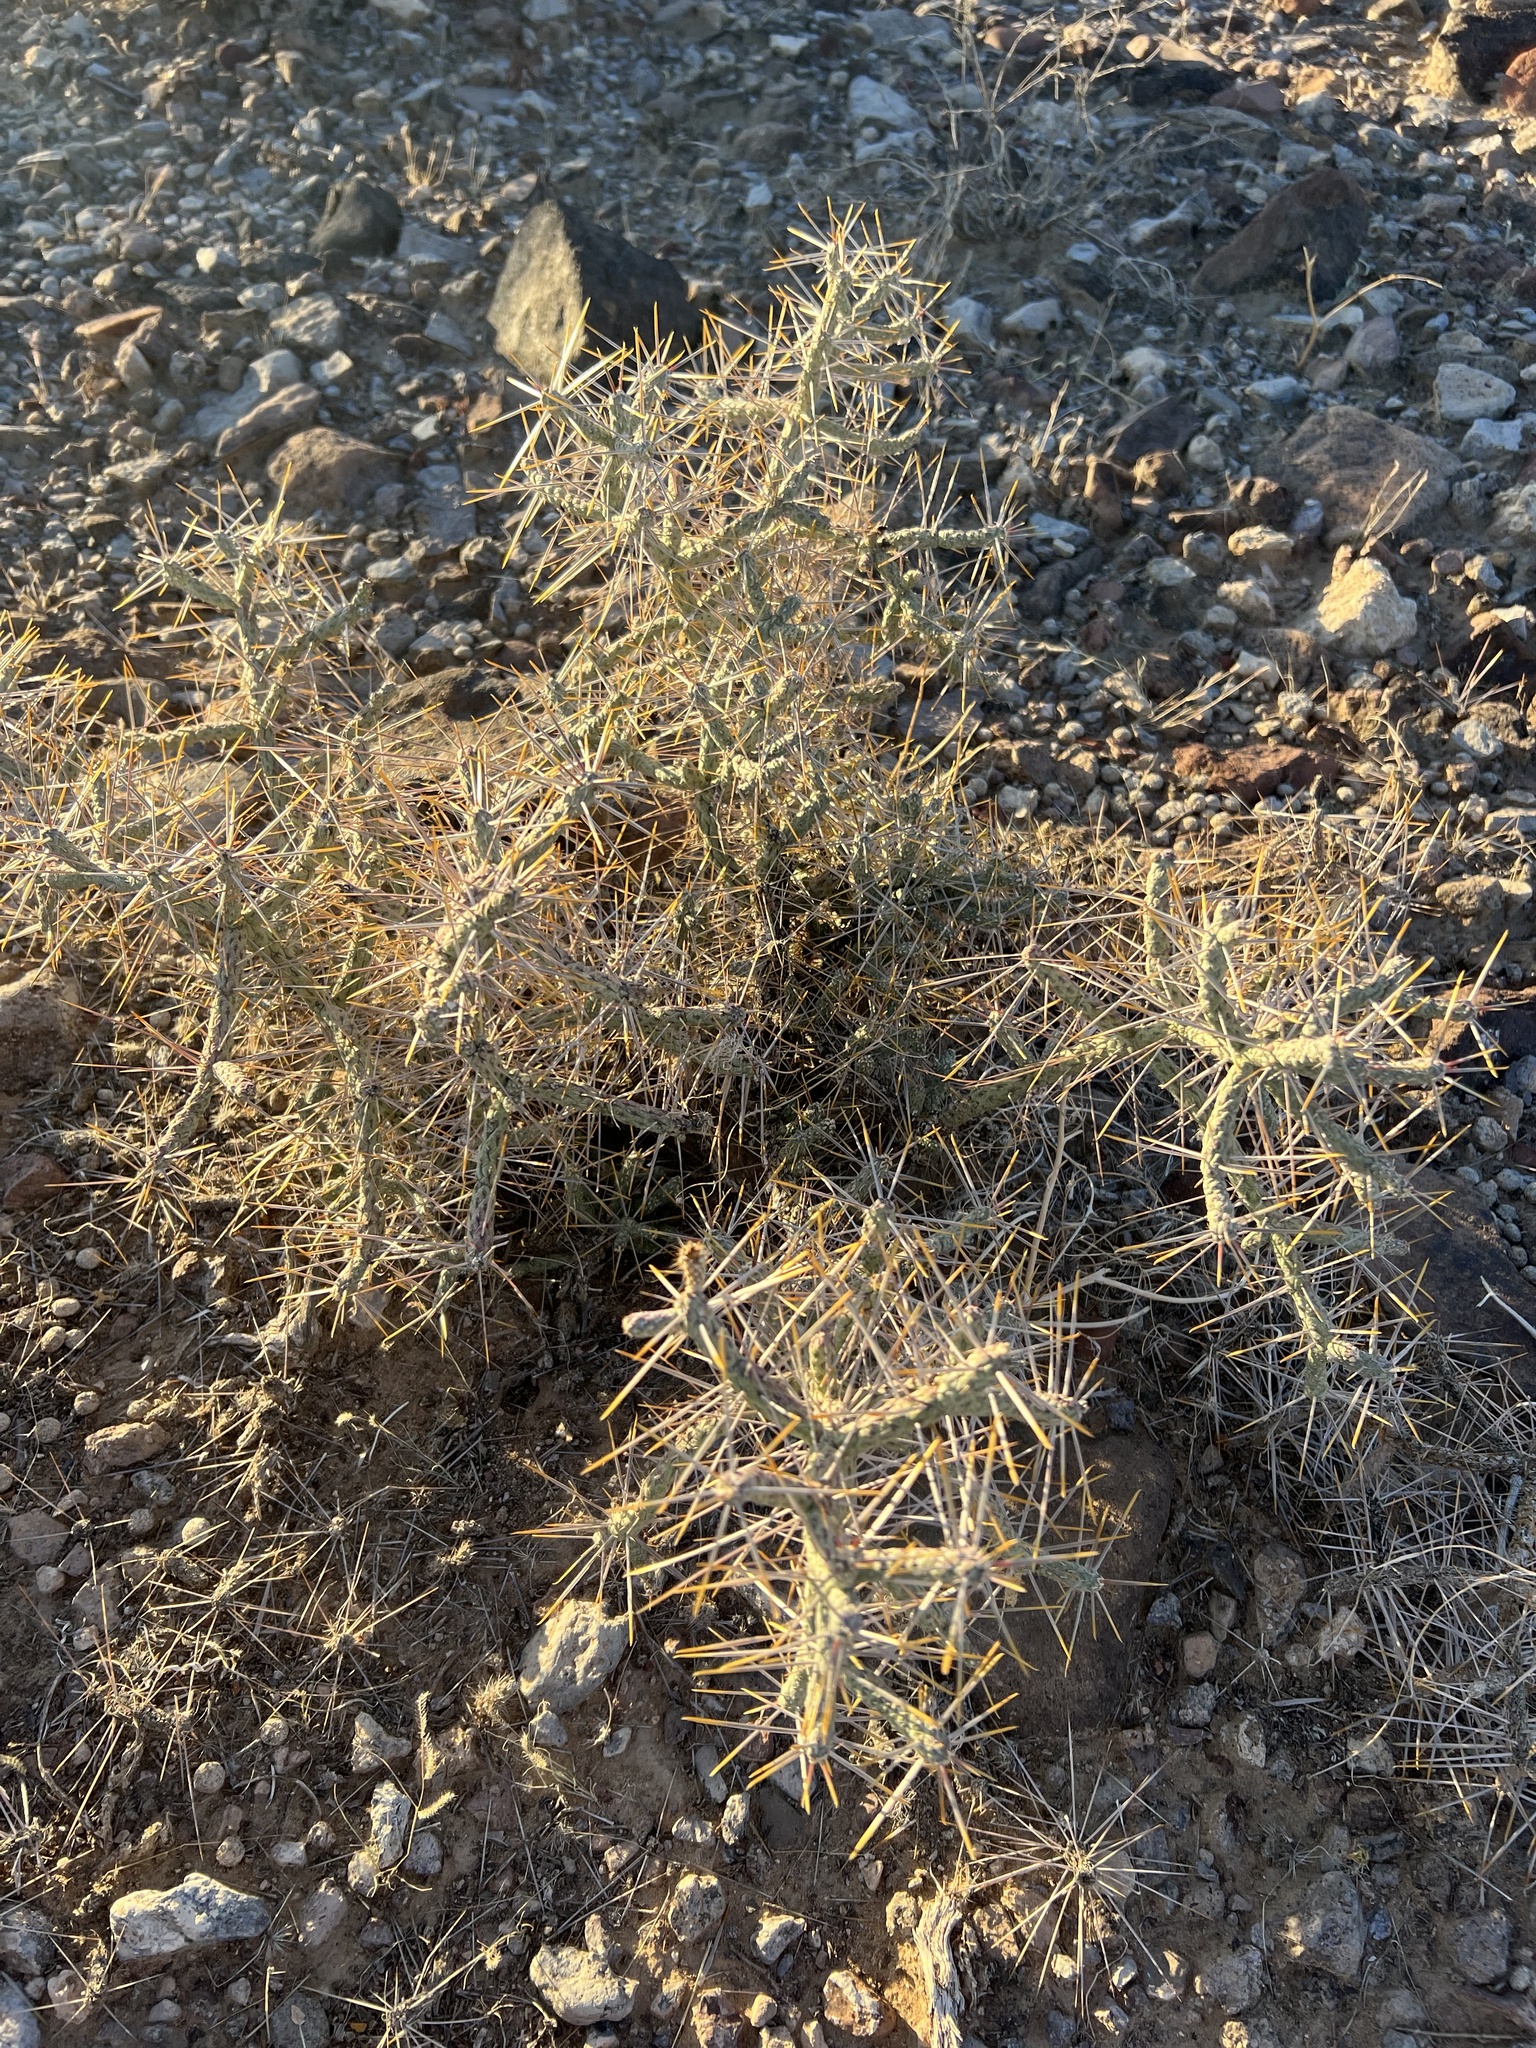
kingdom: Plantae
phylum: Tracheophyta
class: Magnoliopsida
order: Caryophyllales
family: Cactaceae
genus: Cylindropuntia
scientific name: Cylindropuntia ramosissima
